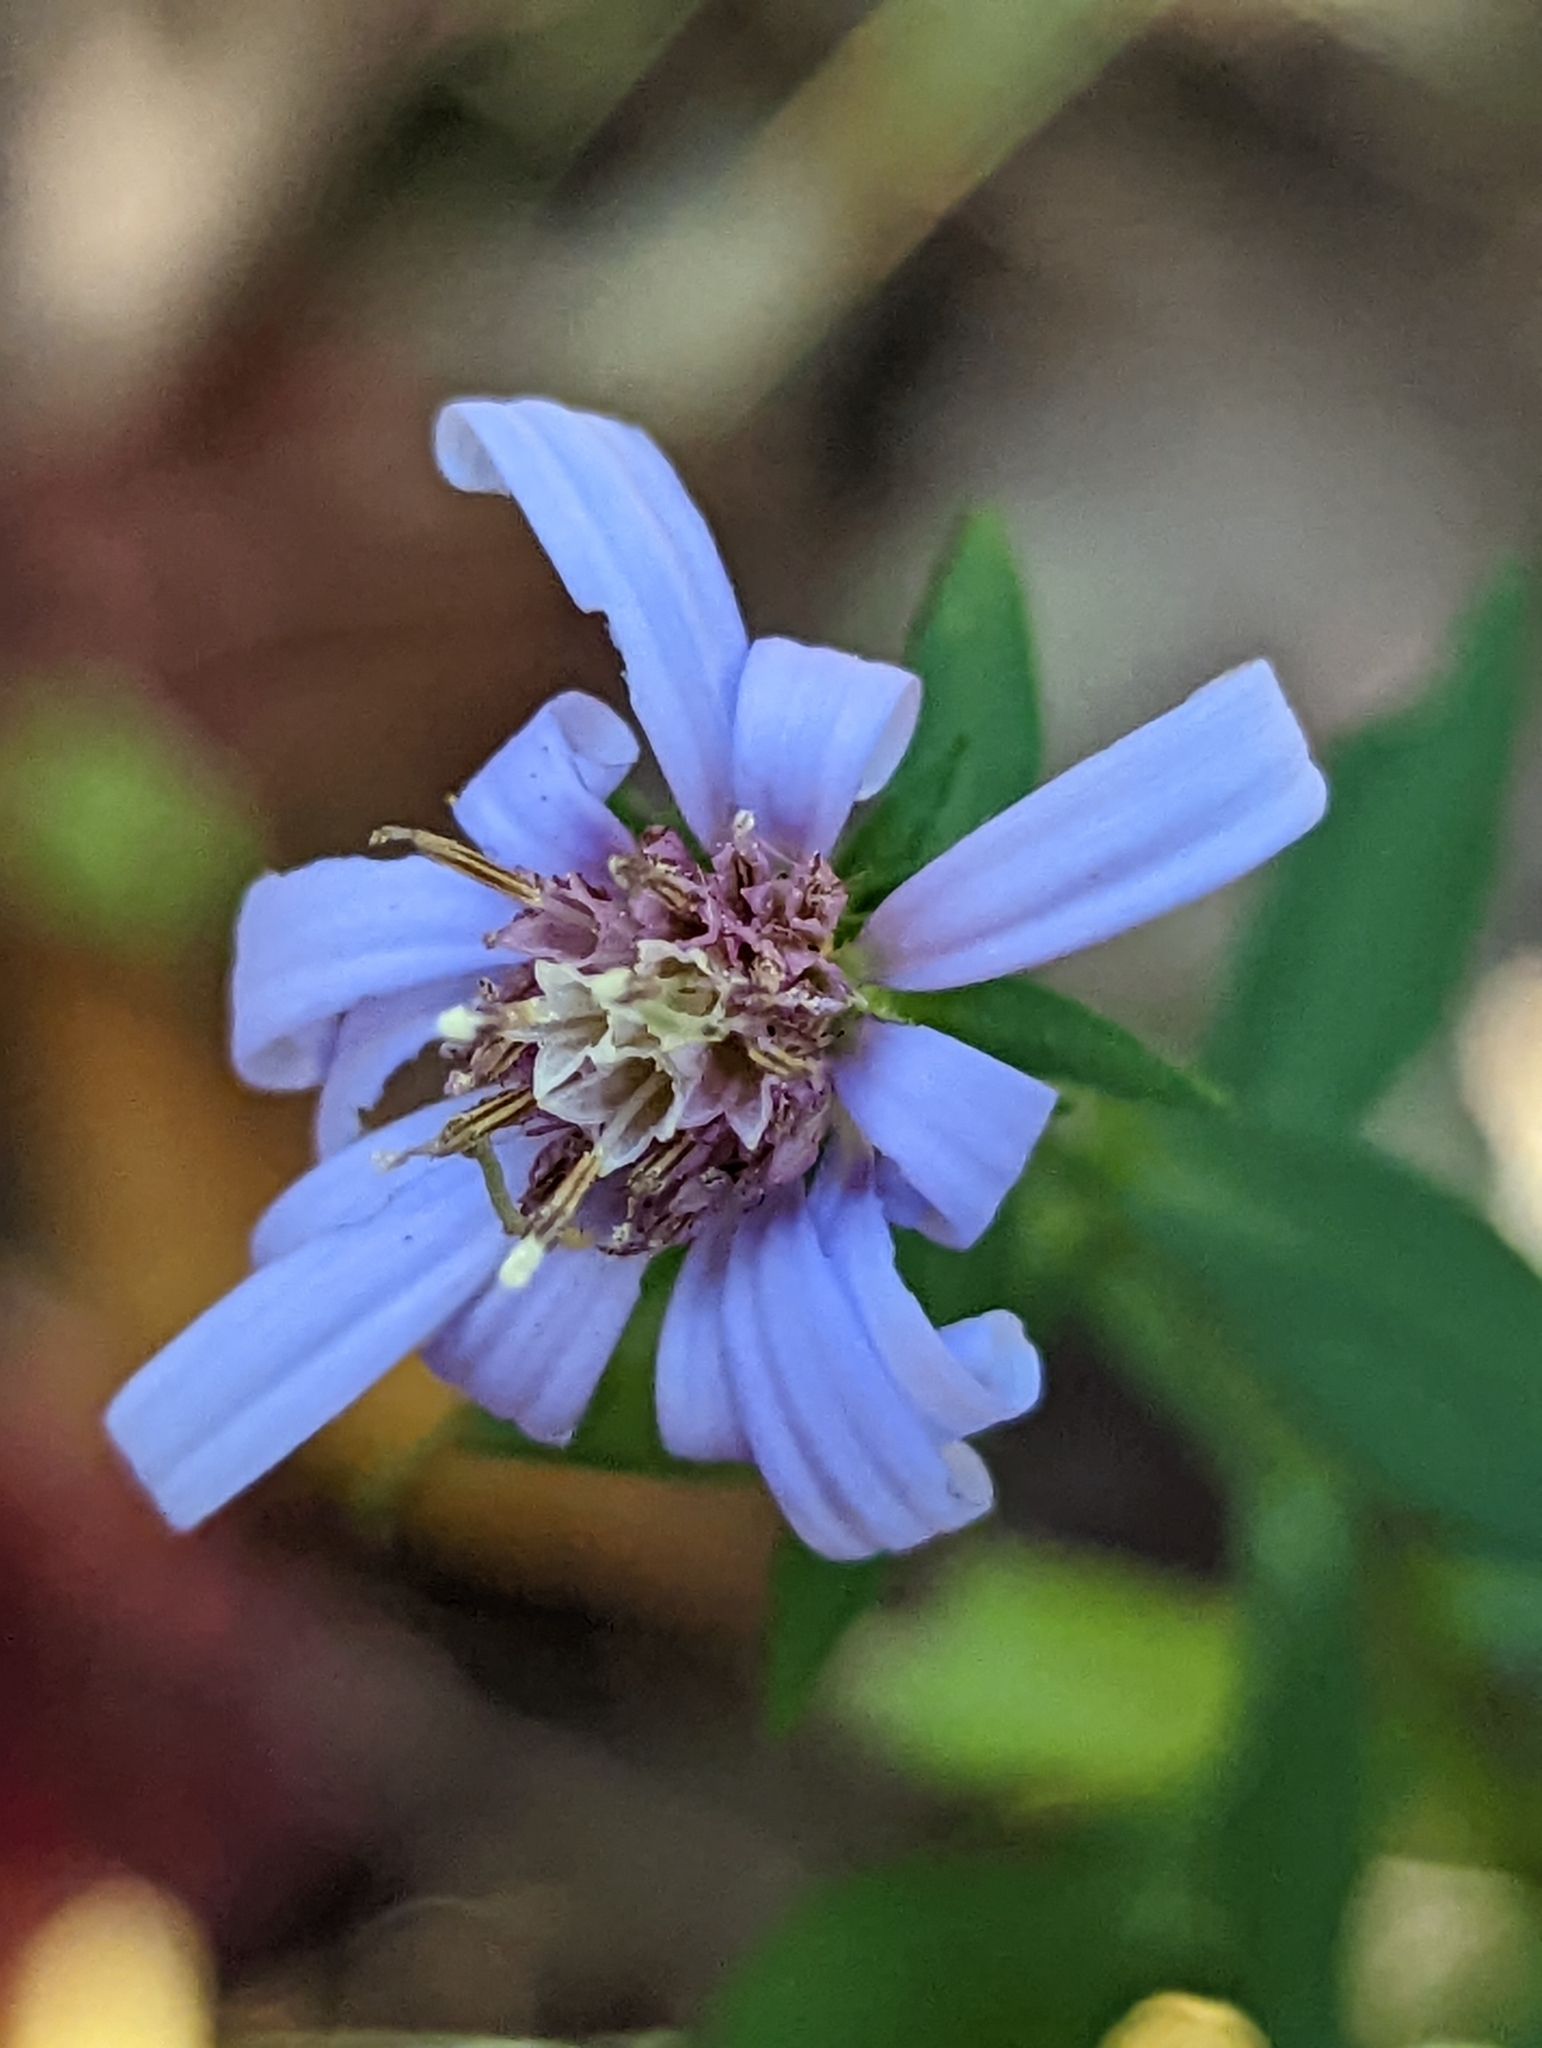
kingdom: Plantae
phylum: Tracheophyta
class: Magnoliopsida
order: Asterales
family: Asteraceae
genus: Symphyotrichum
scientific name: Symphyotrichum retroflexum
